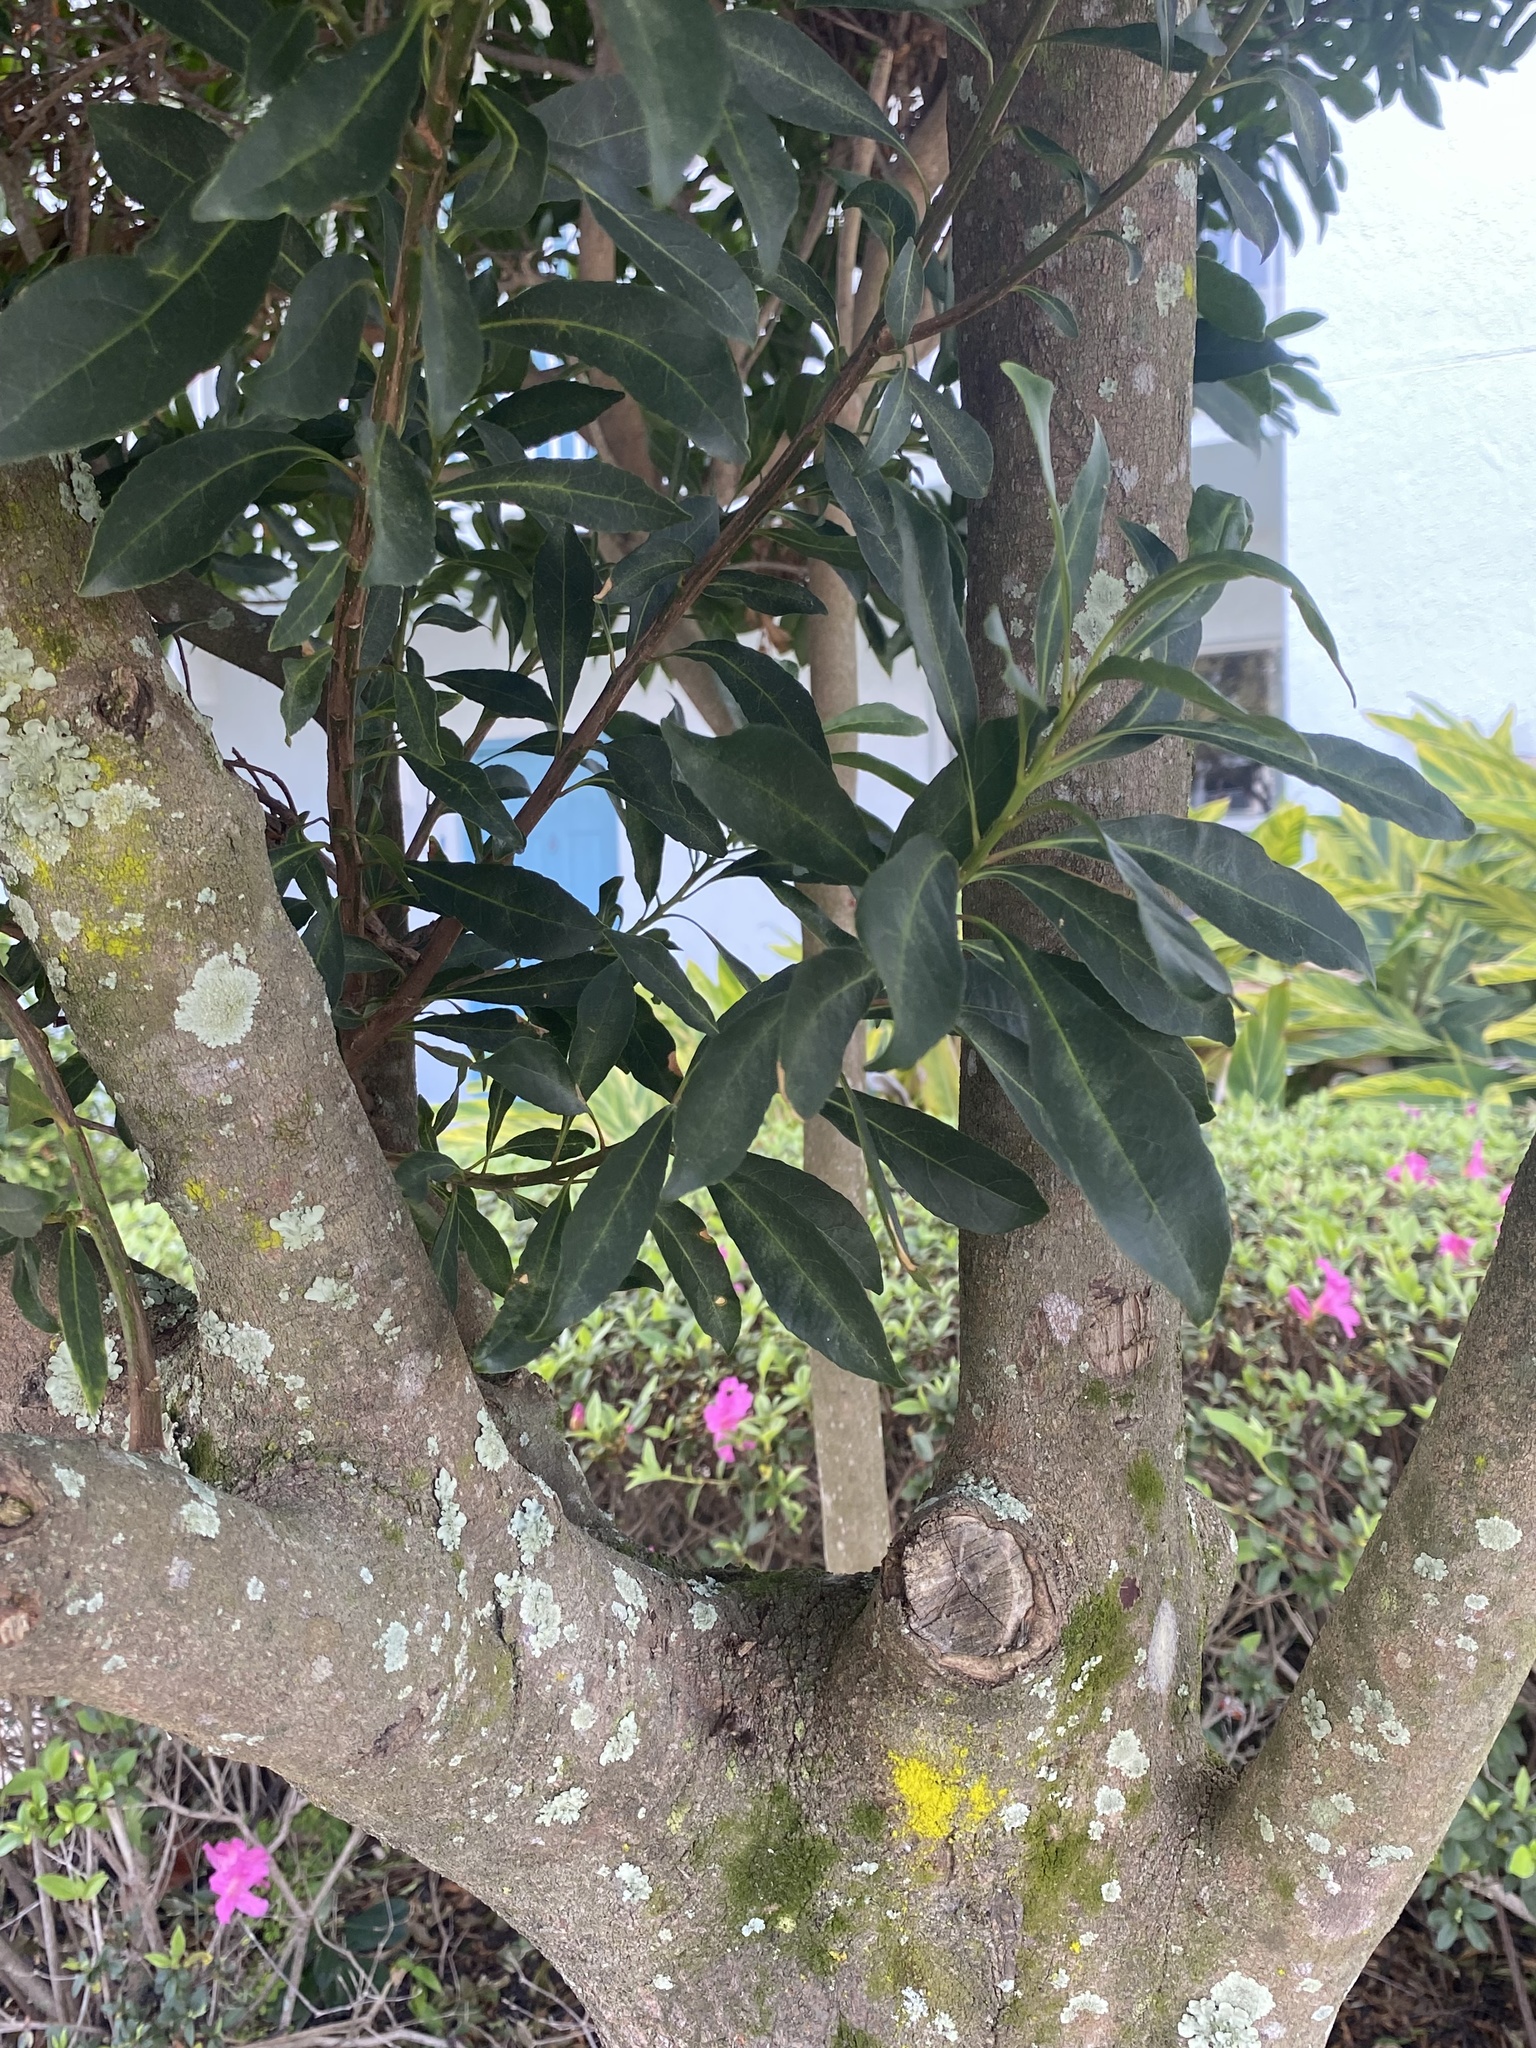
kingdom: Fungi
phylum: Ascomycota
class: Arthoniomycetes
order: Arthoniales
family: Arthoniaceae
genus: Herpothallon
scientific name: Herpothallon rubrocinctum
